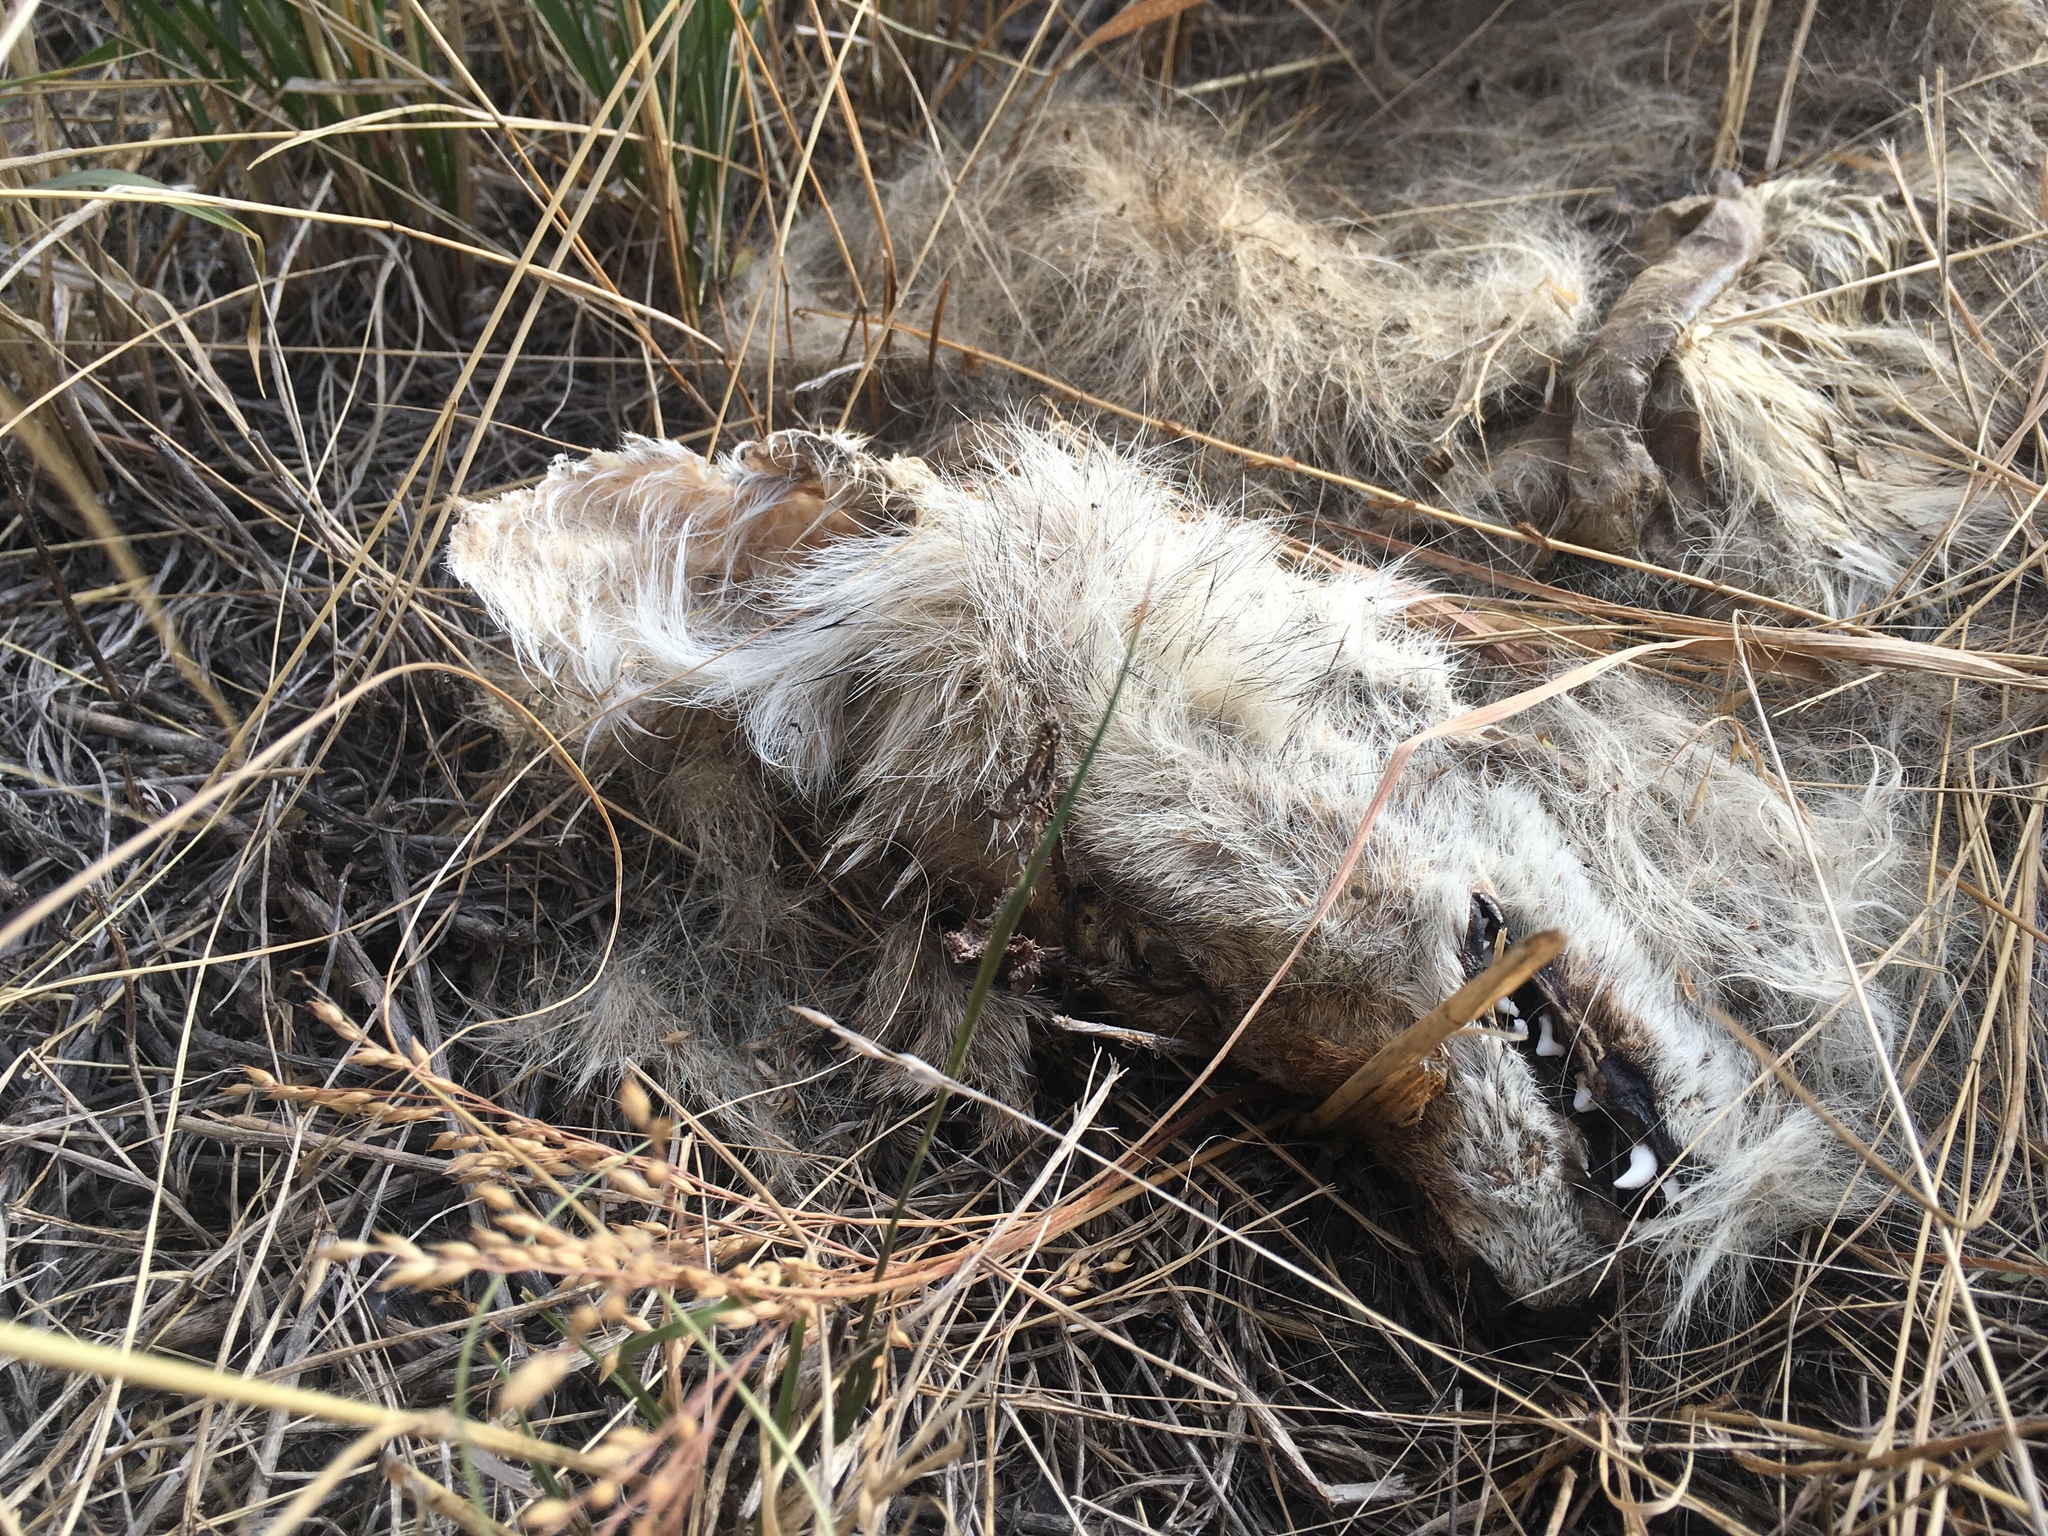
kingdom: Animalia
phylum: Chordata
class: Mammalia
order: Carnivora
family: Canidae
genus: Canis
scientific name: Canis latrans
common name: Coyote
